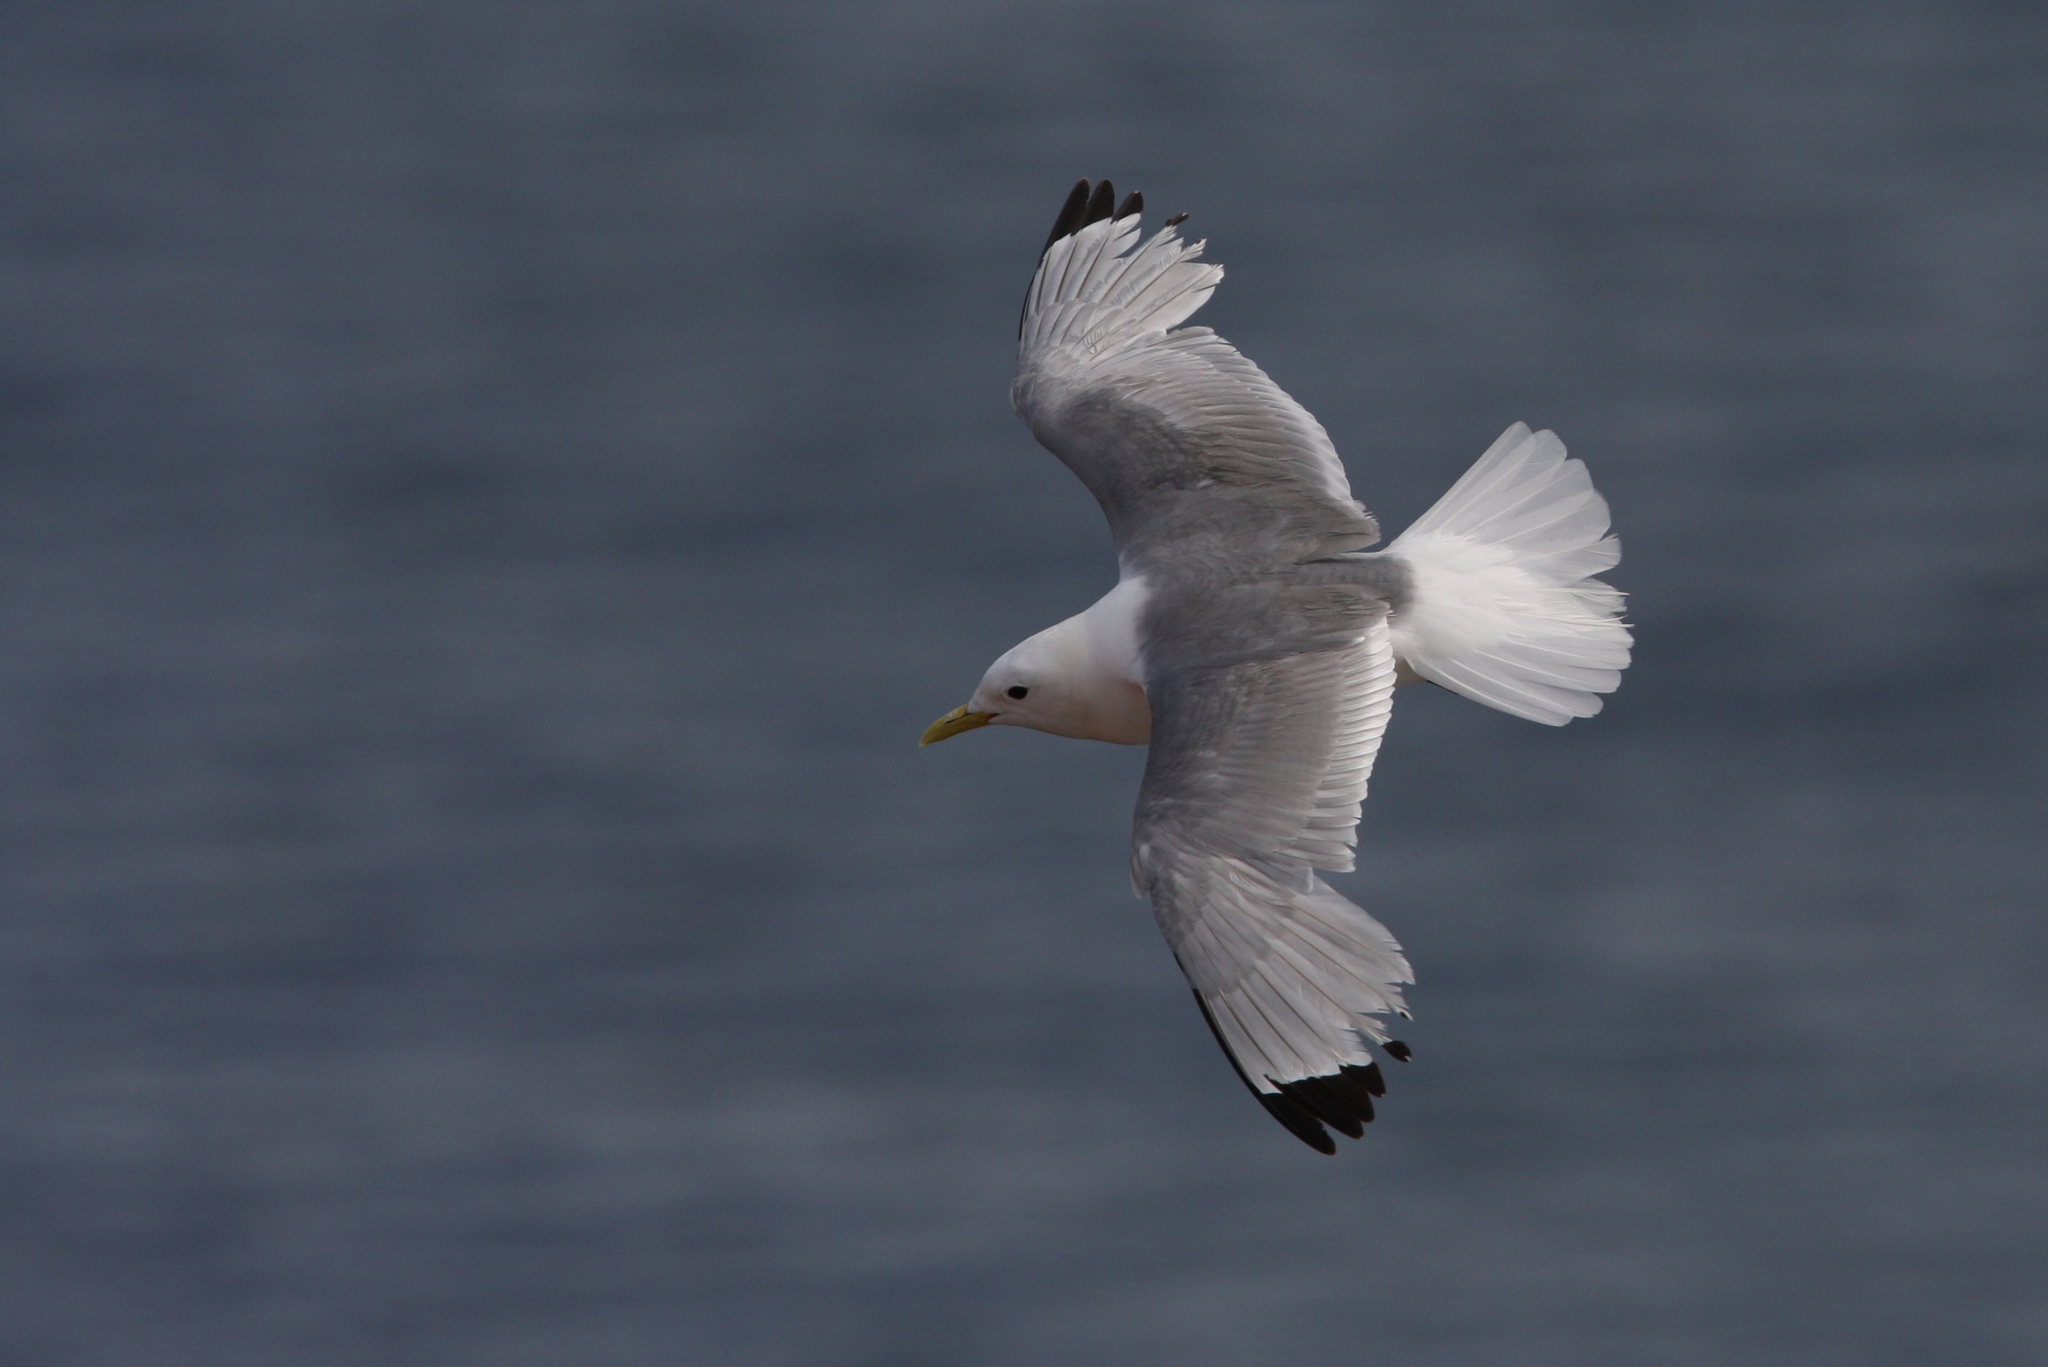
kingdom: Animalia
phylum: Chordata
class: Aves
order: Charadriiformes
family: Laridae
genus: Rissa
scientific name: Rissa tridactyla
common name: Black-legged kittiwake
